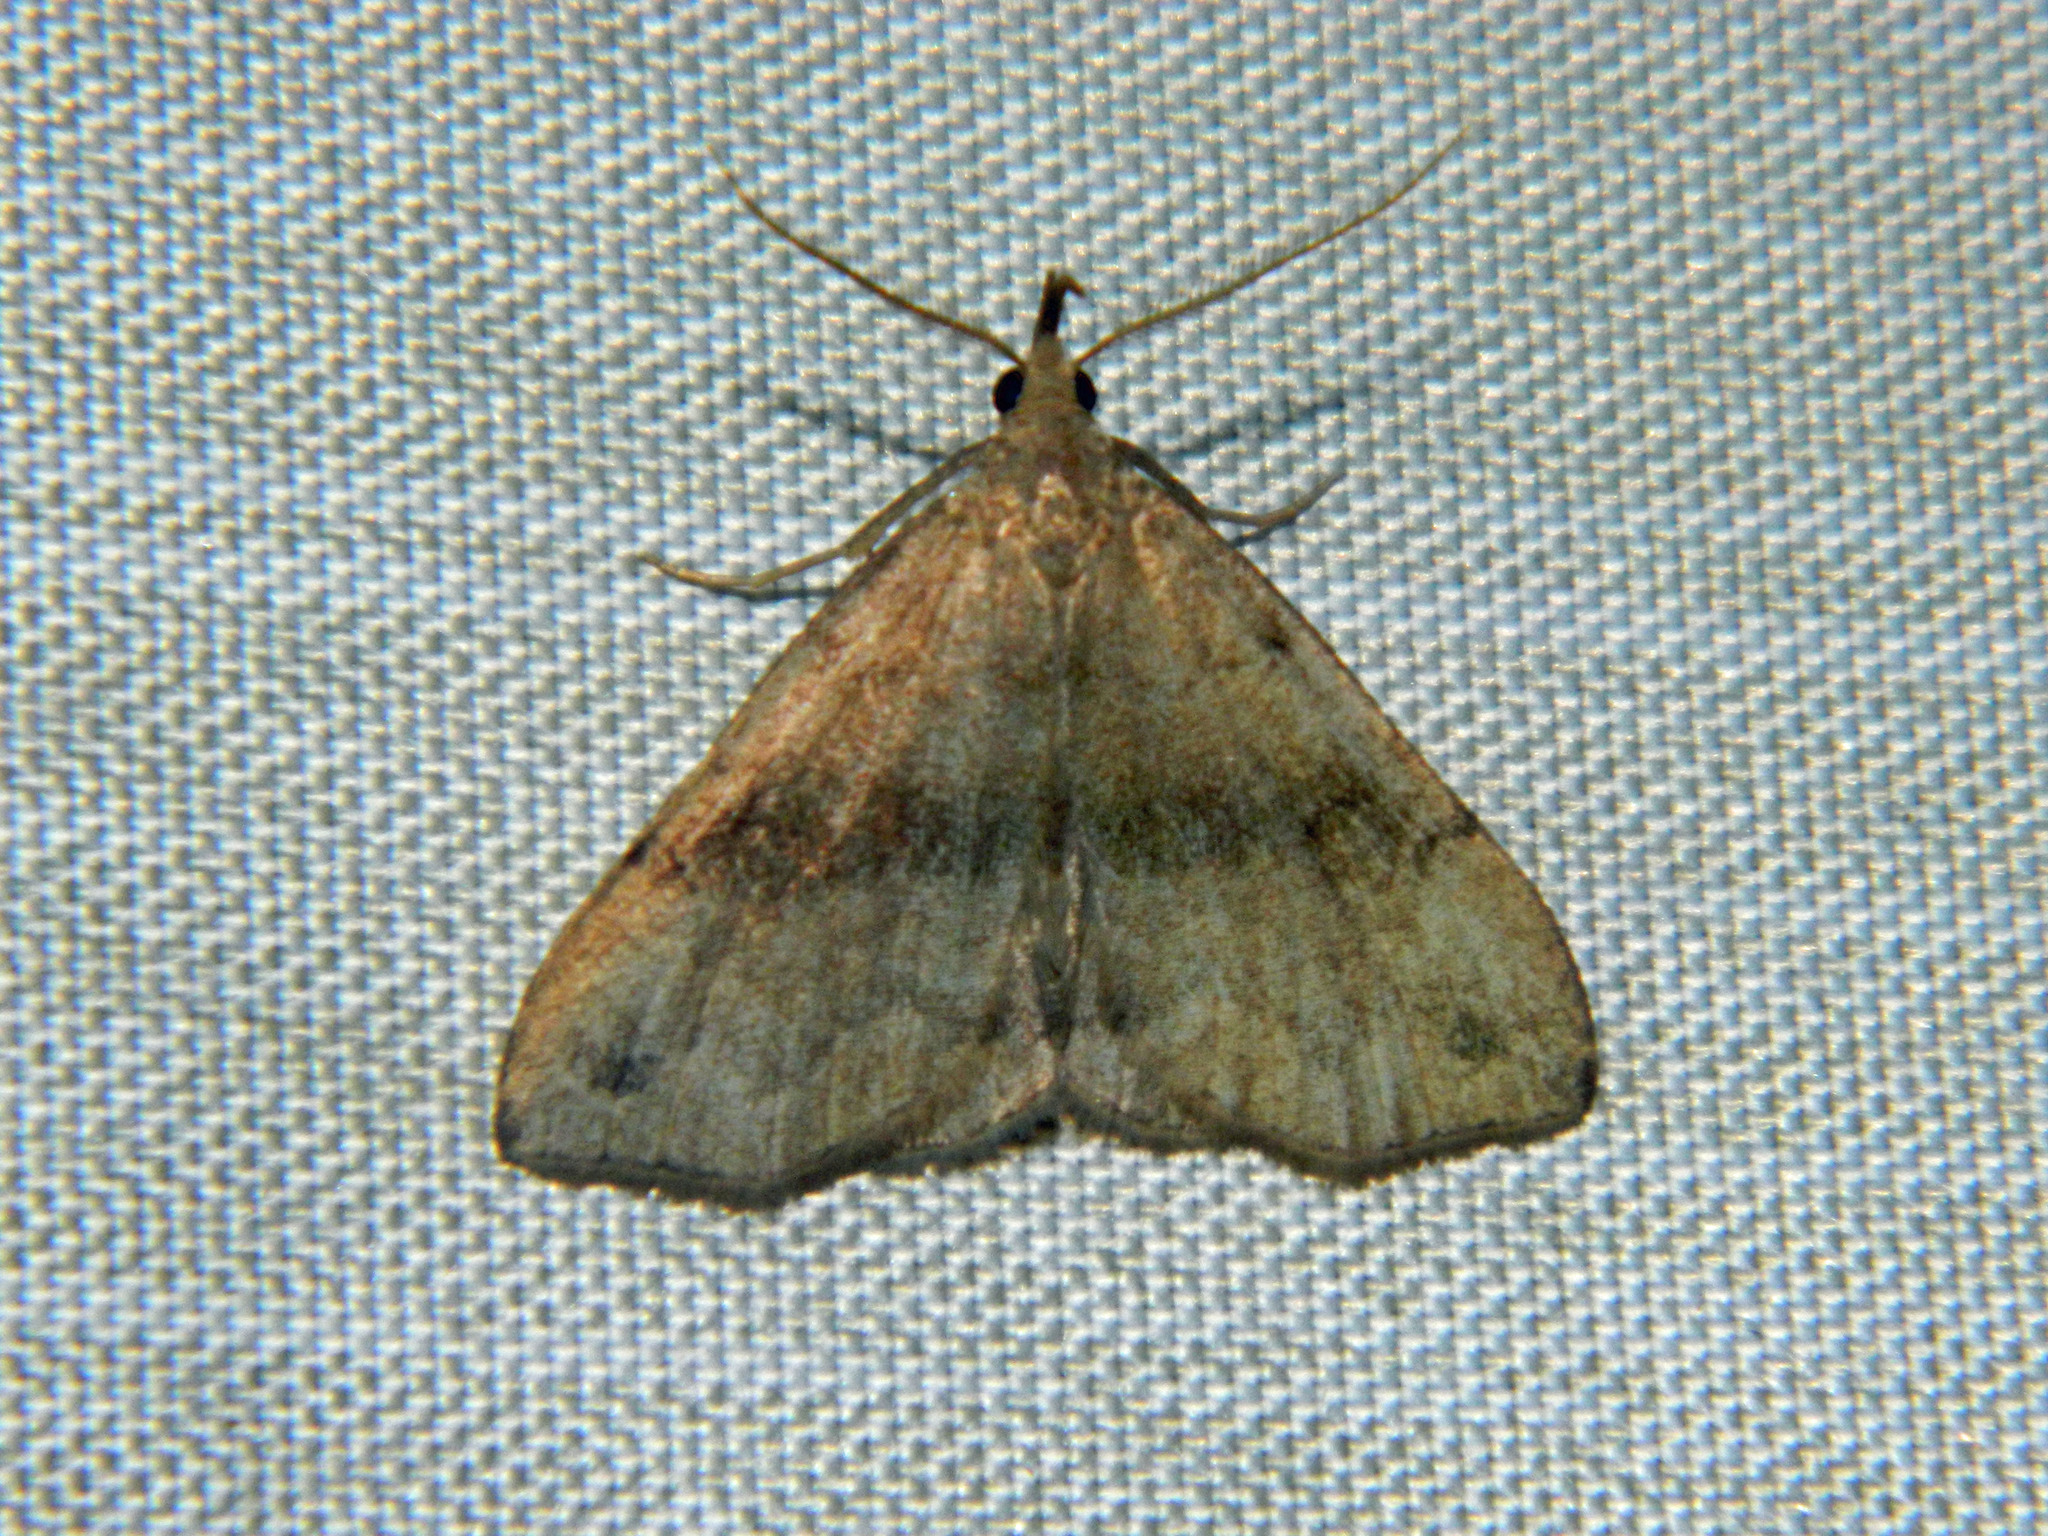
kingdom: Animalia
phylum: Arthropoda
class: Insecta
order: Lepidoptera
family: Erebidae
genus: Phalaenostola
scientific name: Phalaenostola eumelusalis
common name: Dark phalaenostola moth
